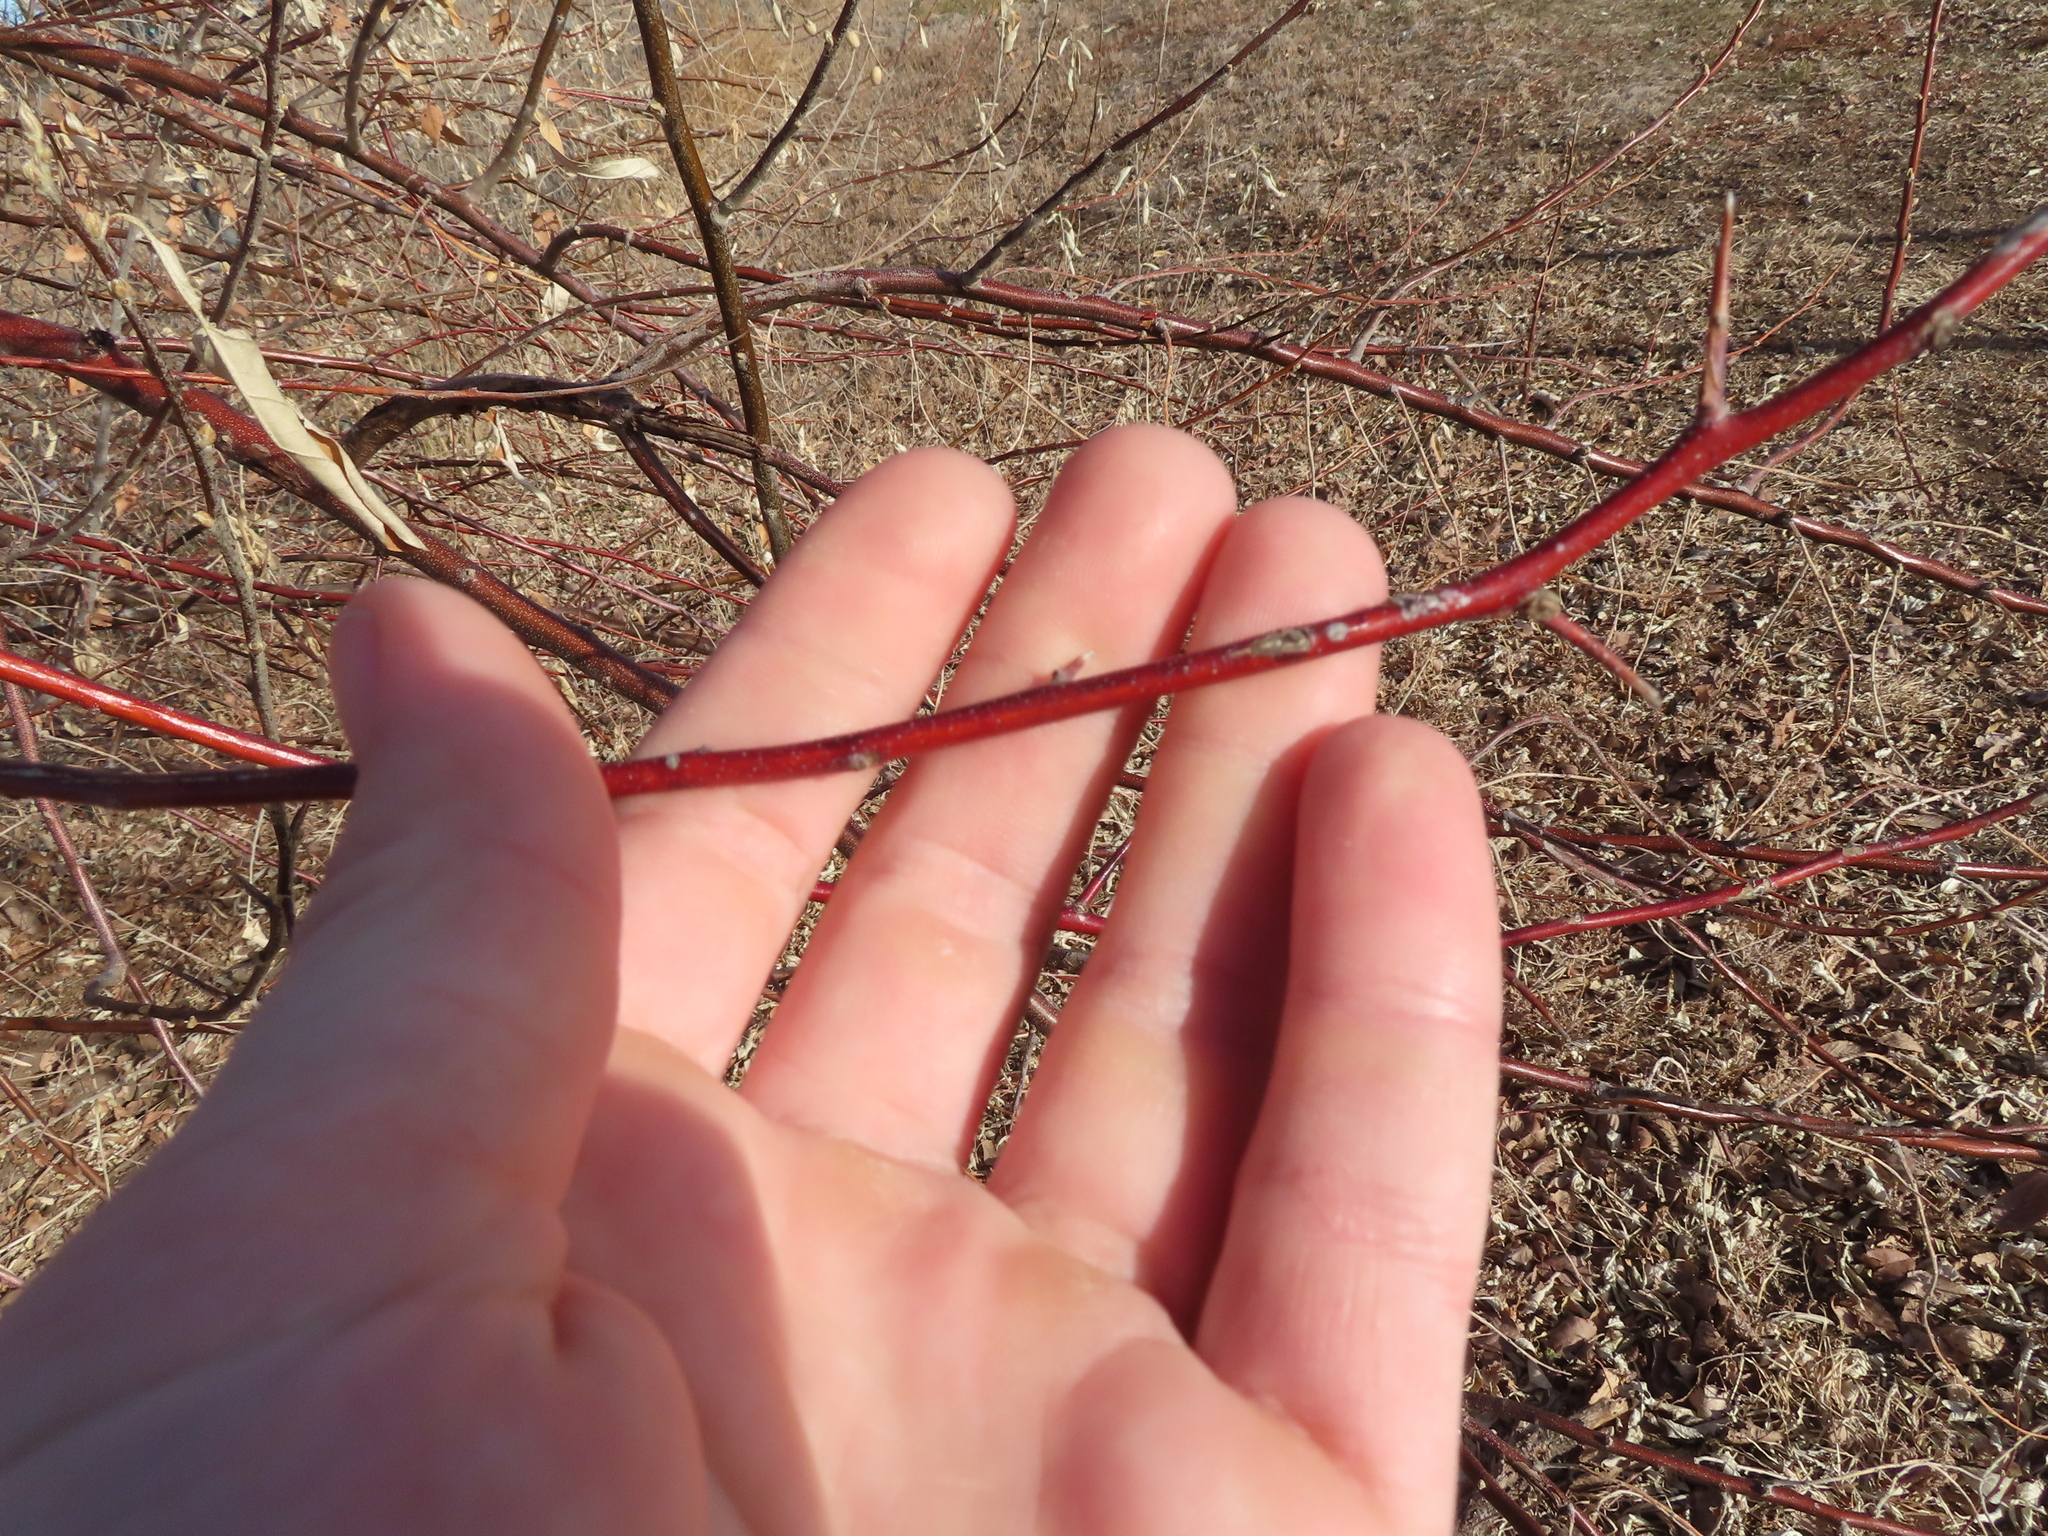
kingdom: Plantae
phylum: Tracheophyta
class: Magnoliopsida
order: Cornales
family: Cornaceae
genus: Cornus
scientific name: Cornus sericea
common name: Red-osier dogwood
